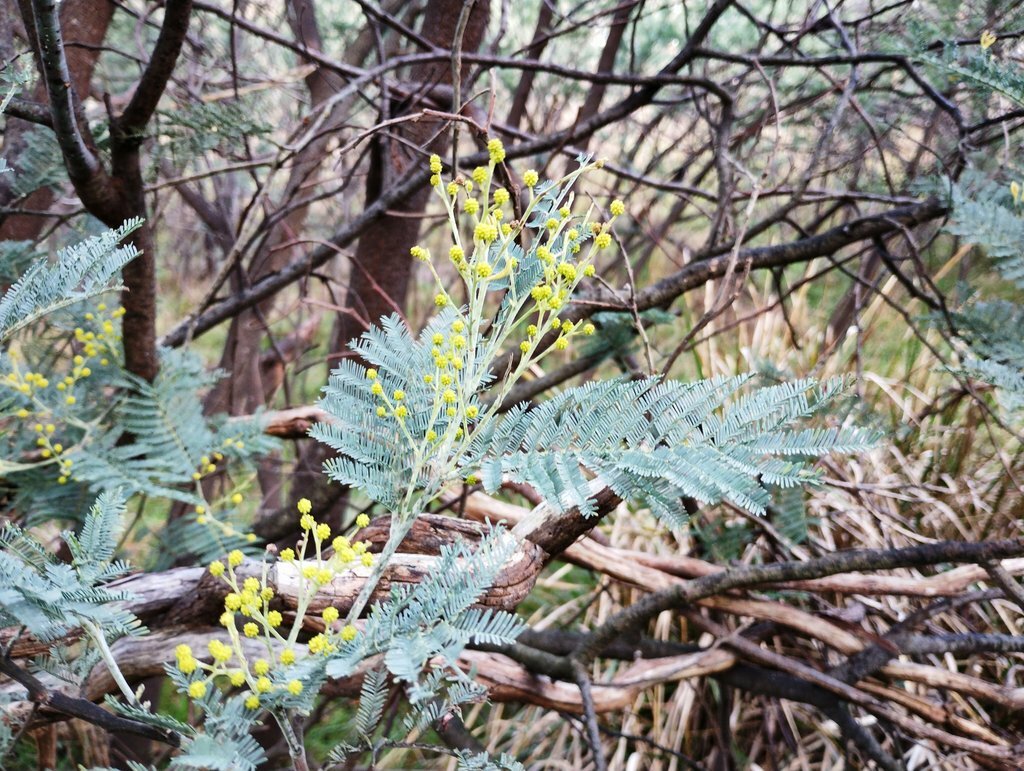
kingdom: Plantae
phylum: Tracheophyta
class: Magnoliopsida
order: Fabales
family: Fabaceae
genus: Acacia
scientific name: Acacia dealbata
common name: Silver wattle
